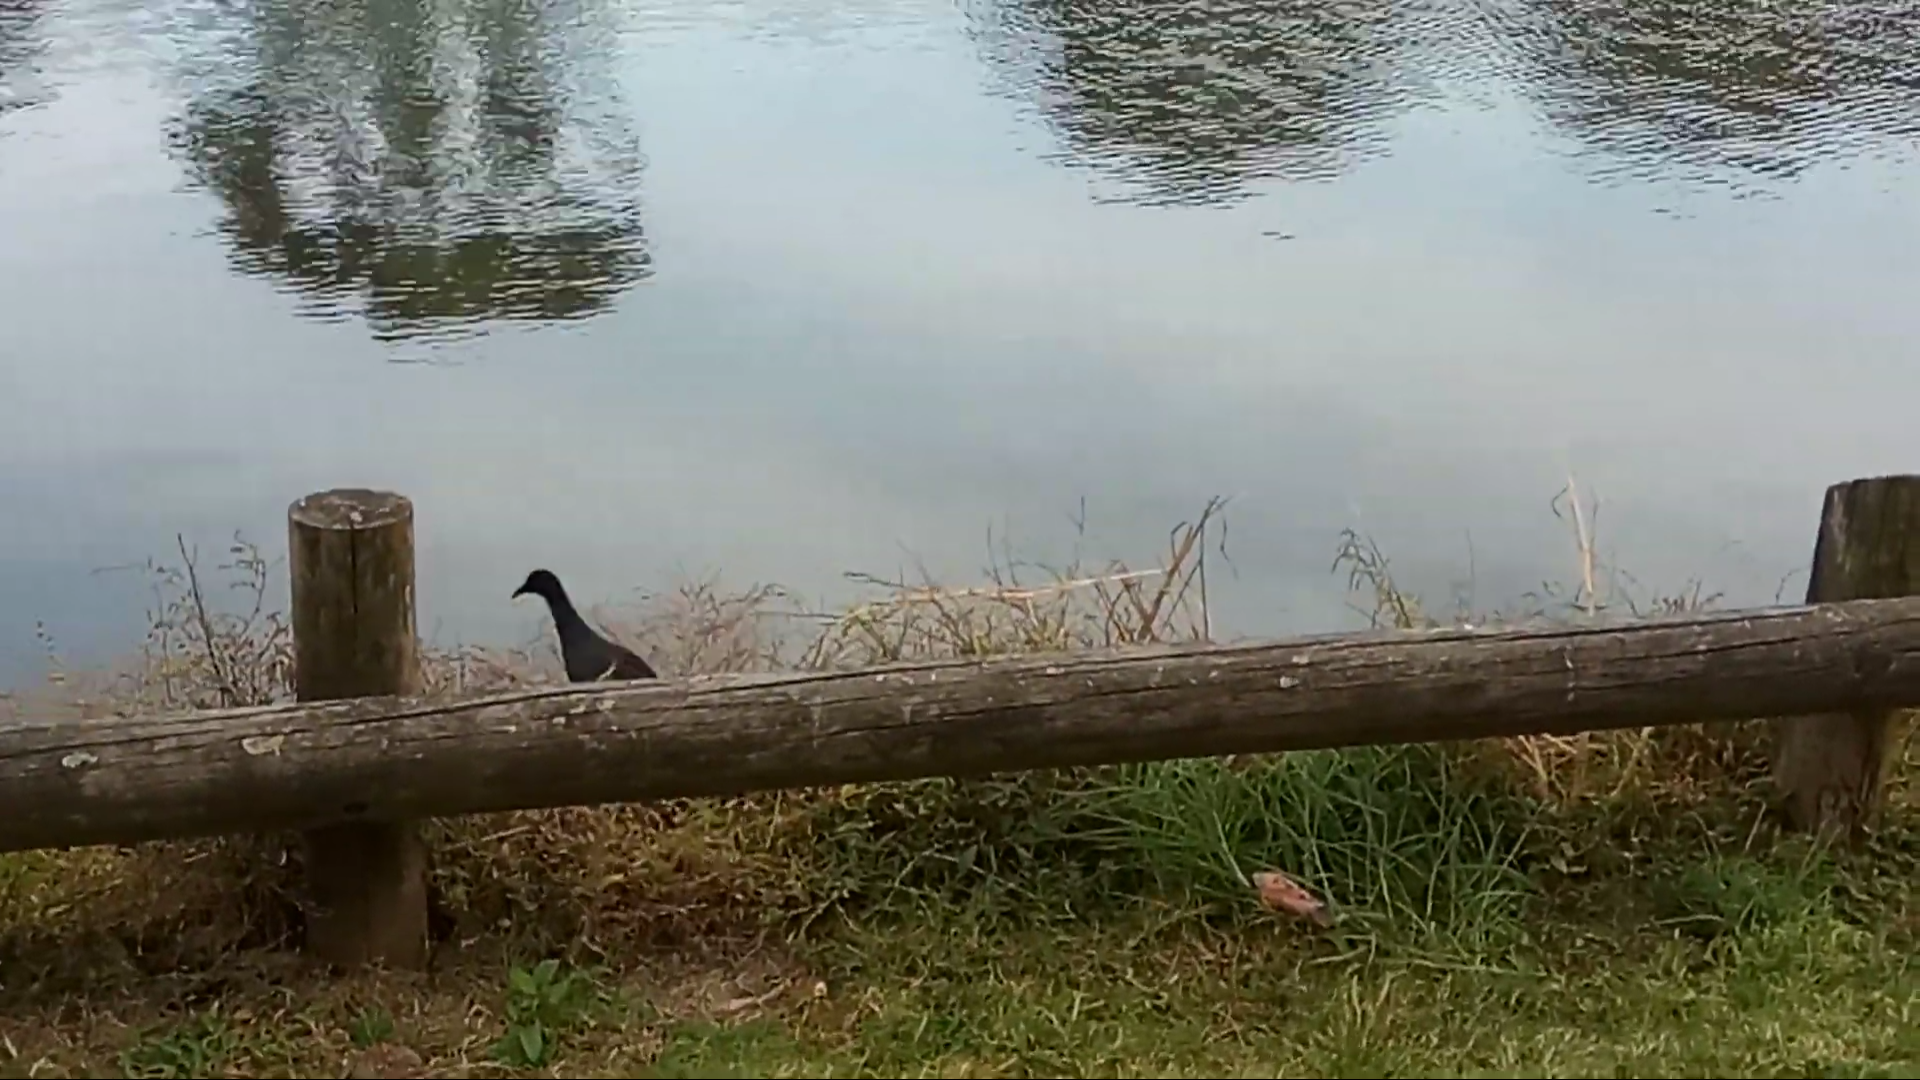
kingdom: Animalia
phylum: Chordata
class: Aves
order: Gruiformes
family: Rallidae
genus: Gallinula
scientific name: Gallinula tenebrosa
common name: Dusky moorhen
